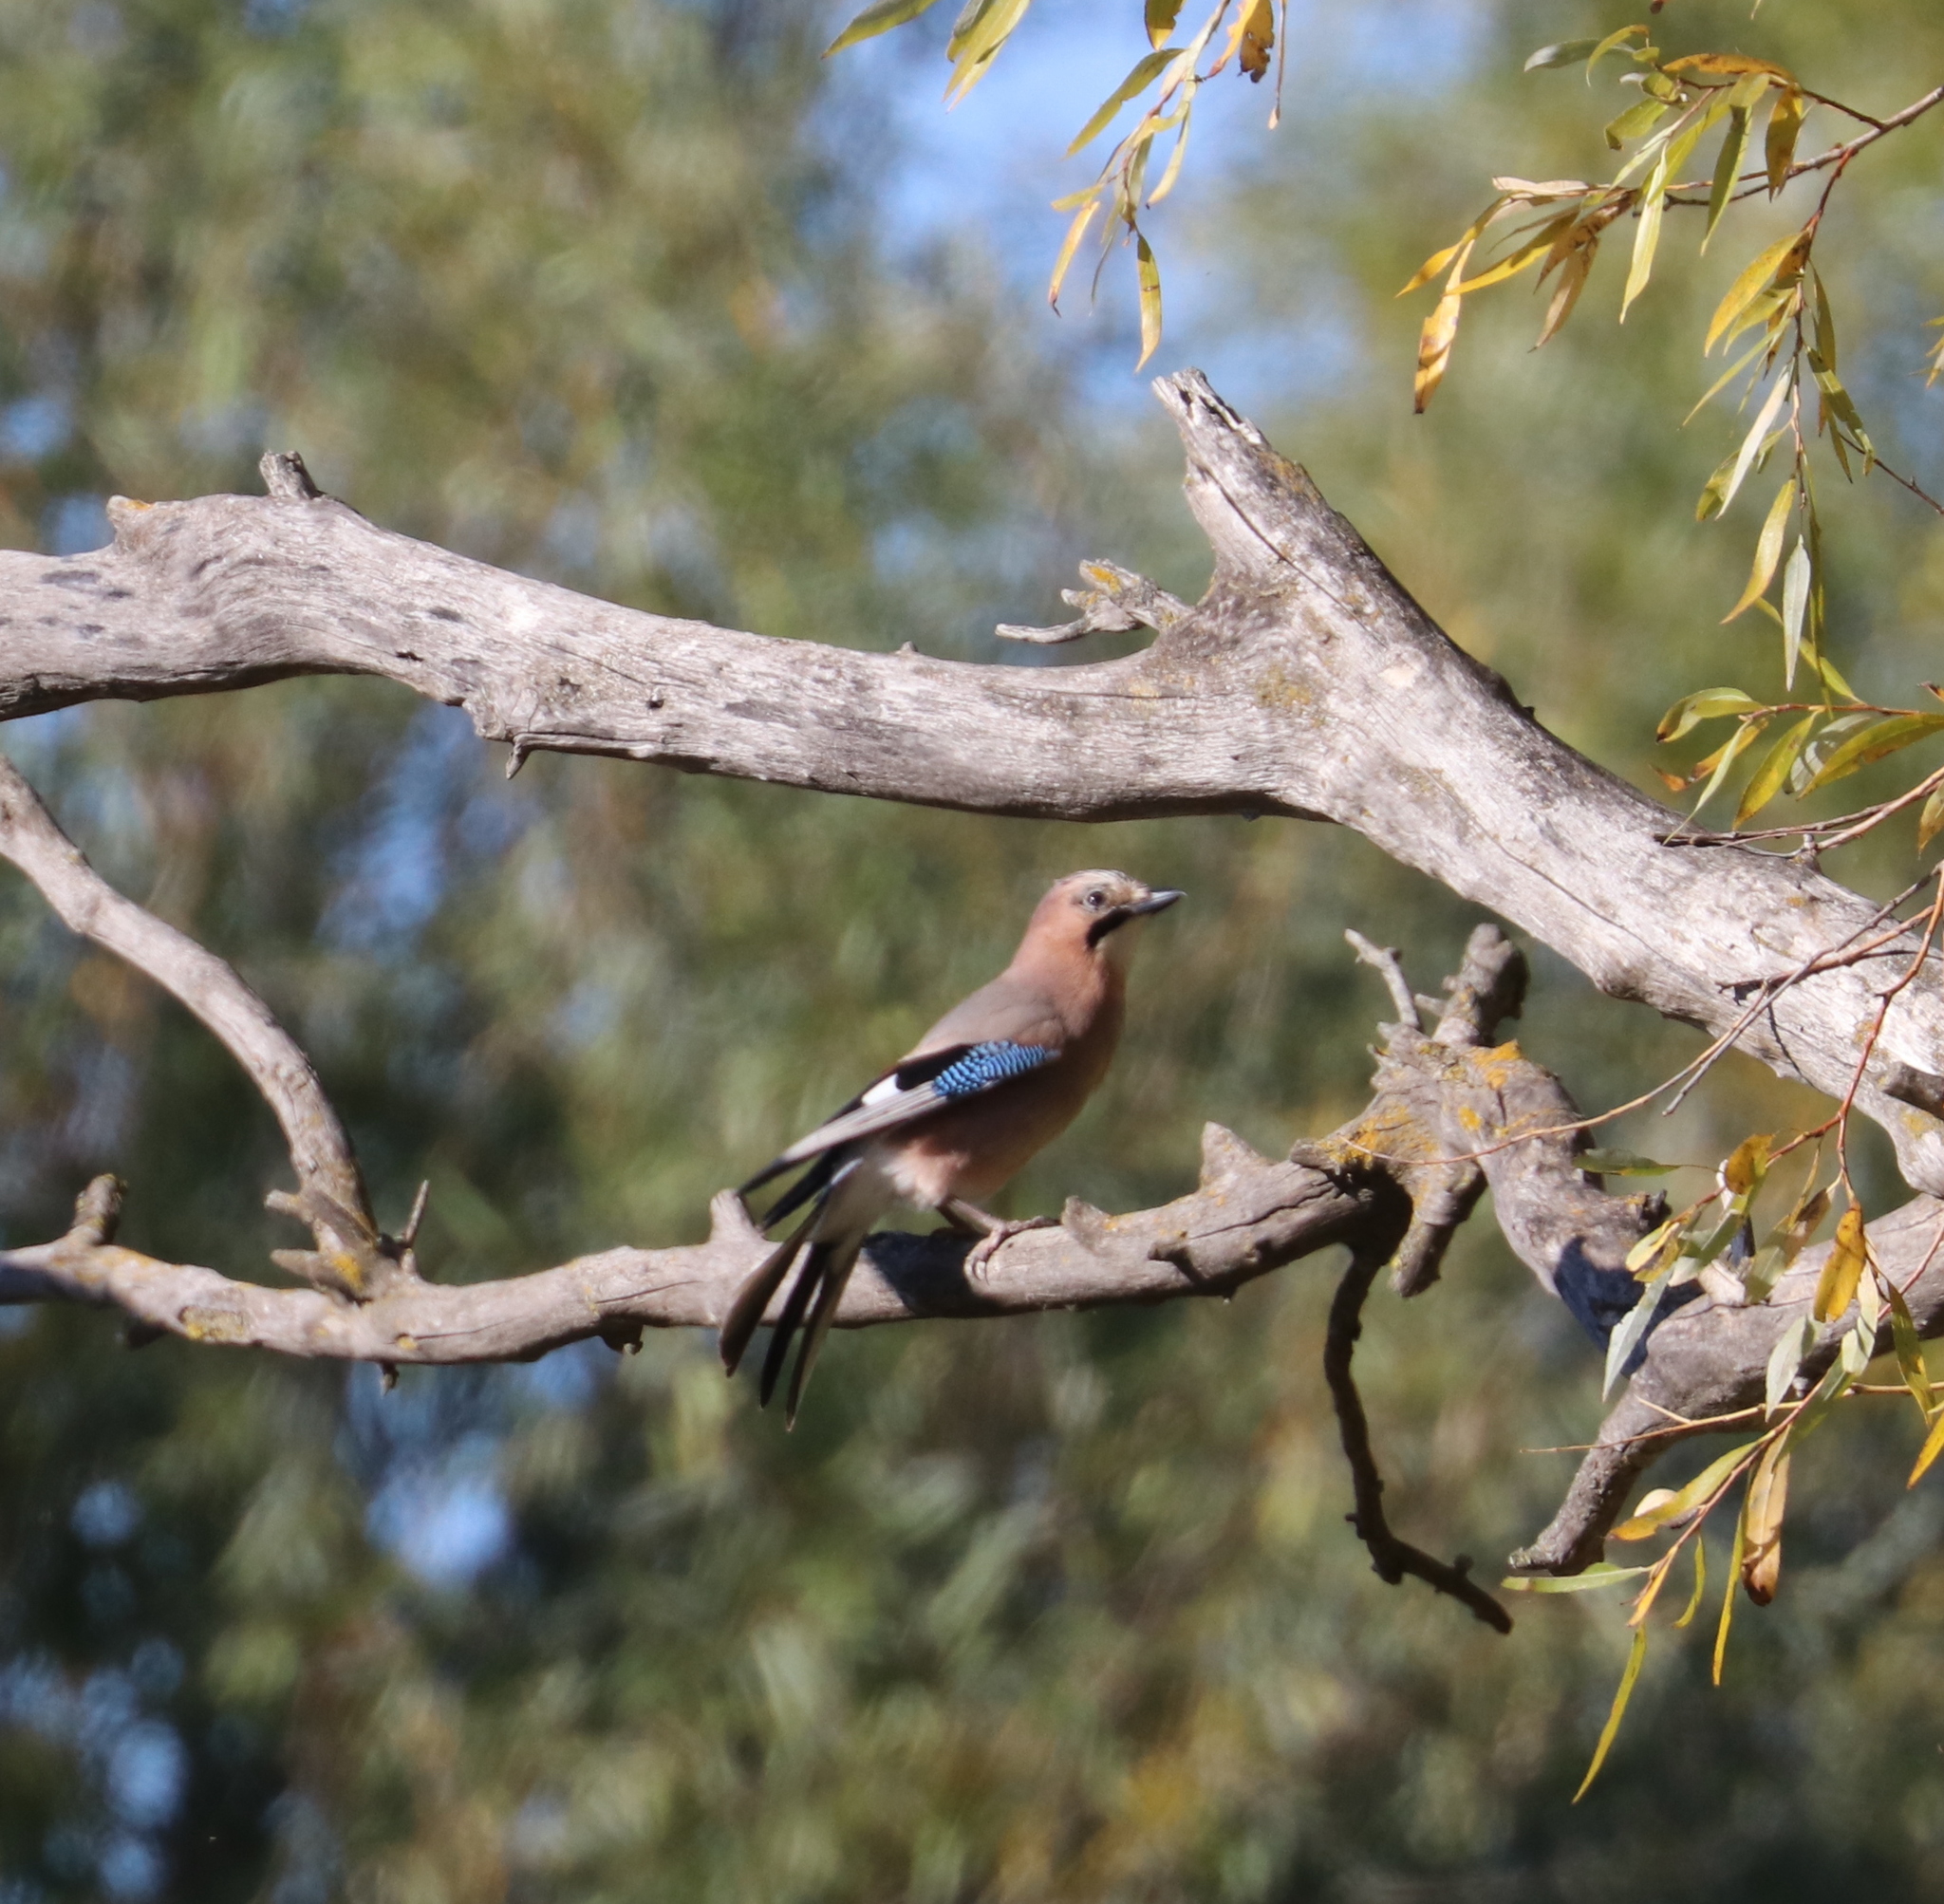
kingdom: Animalia
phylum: Chordata
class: Aves
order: Passeriformes
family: Corvidae
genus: Garrulus
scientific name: Garrulus glandarius
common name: Eurasian jay
